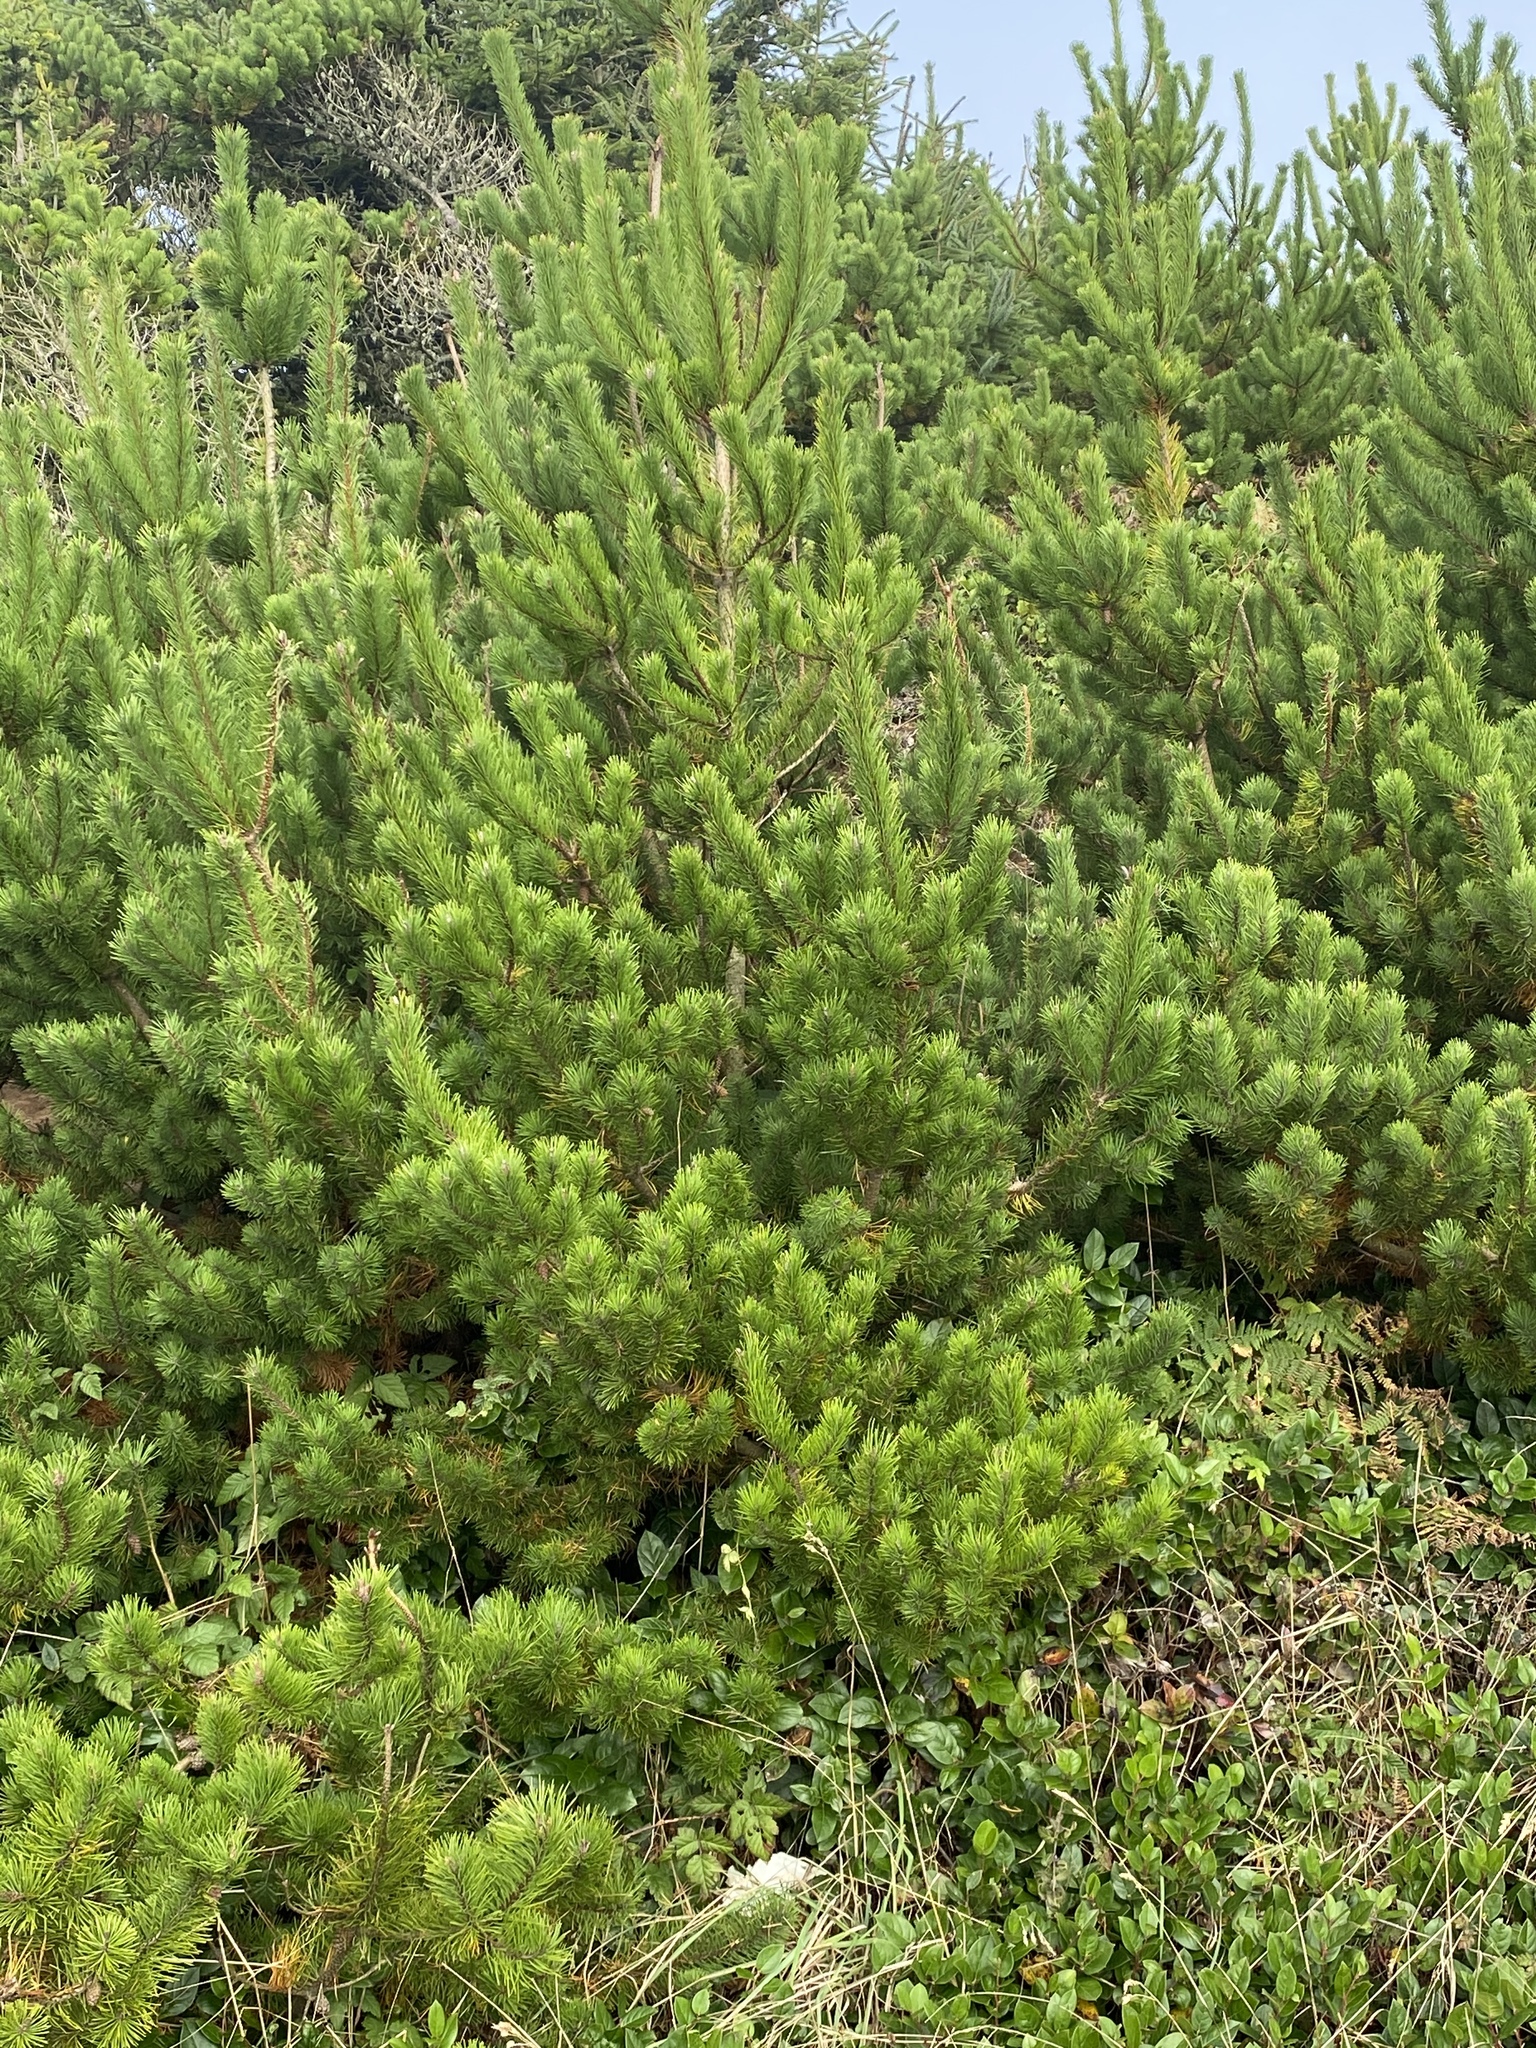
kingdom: Plantae
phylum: Tracheophyta
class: Pinopsida
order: Pinales
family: Pinaceae
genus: Pinus
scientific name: Pinus contorta
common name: Lodgepole pine
